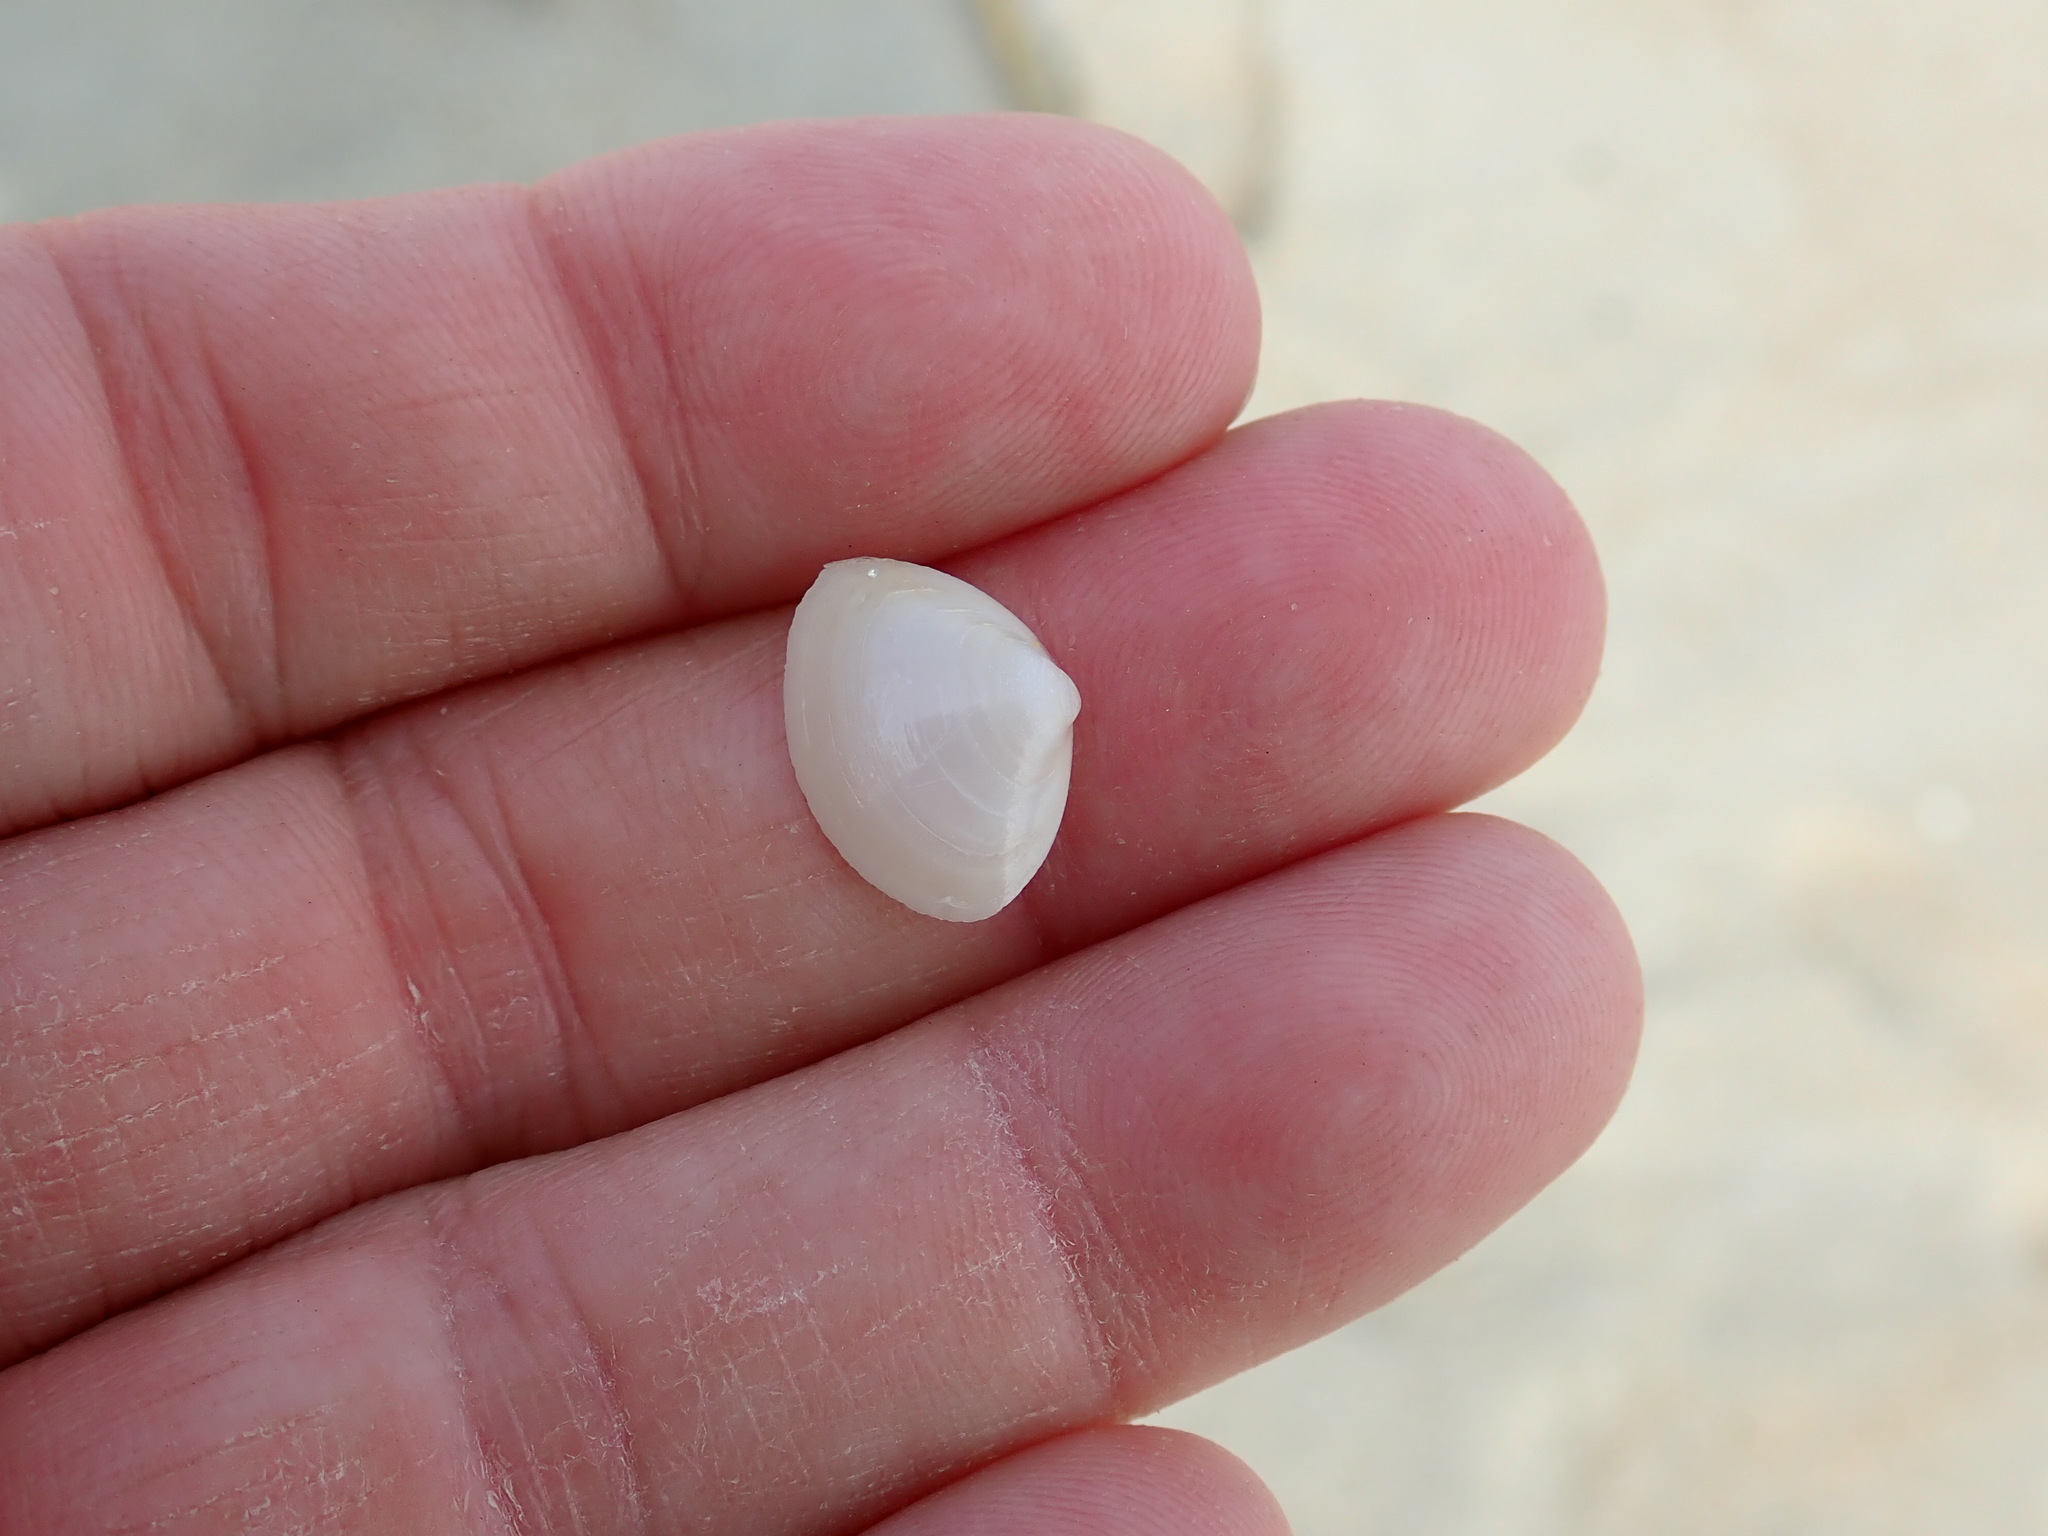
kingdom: Animalia
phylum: Mollusca
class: Bivalvia
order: Venerida
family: Mactridae
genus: Spisula
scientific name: Spisula solidissima
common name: Atlantic surf clam
